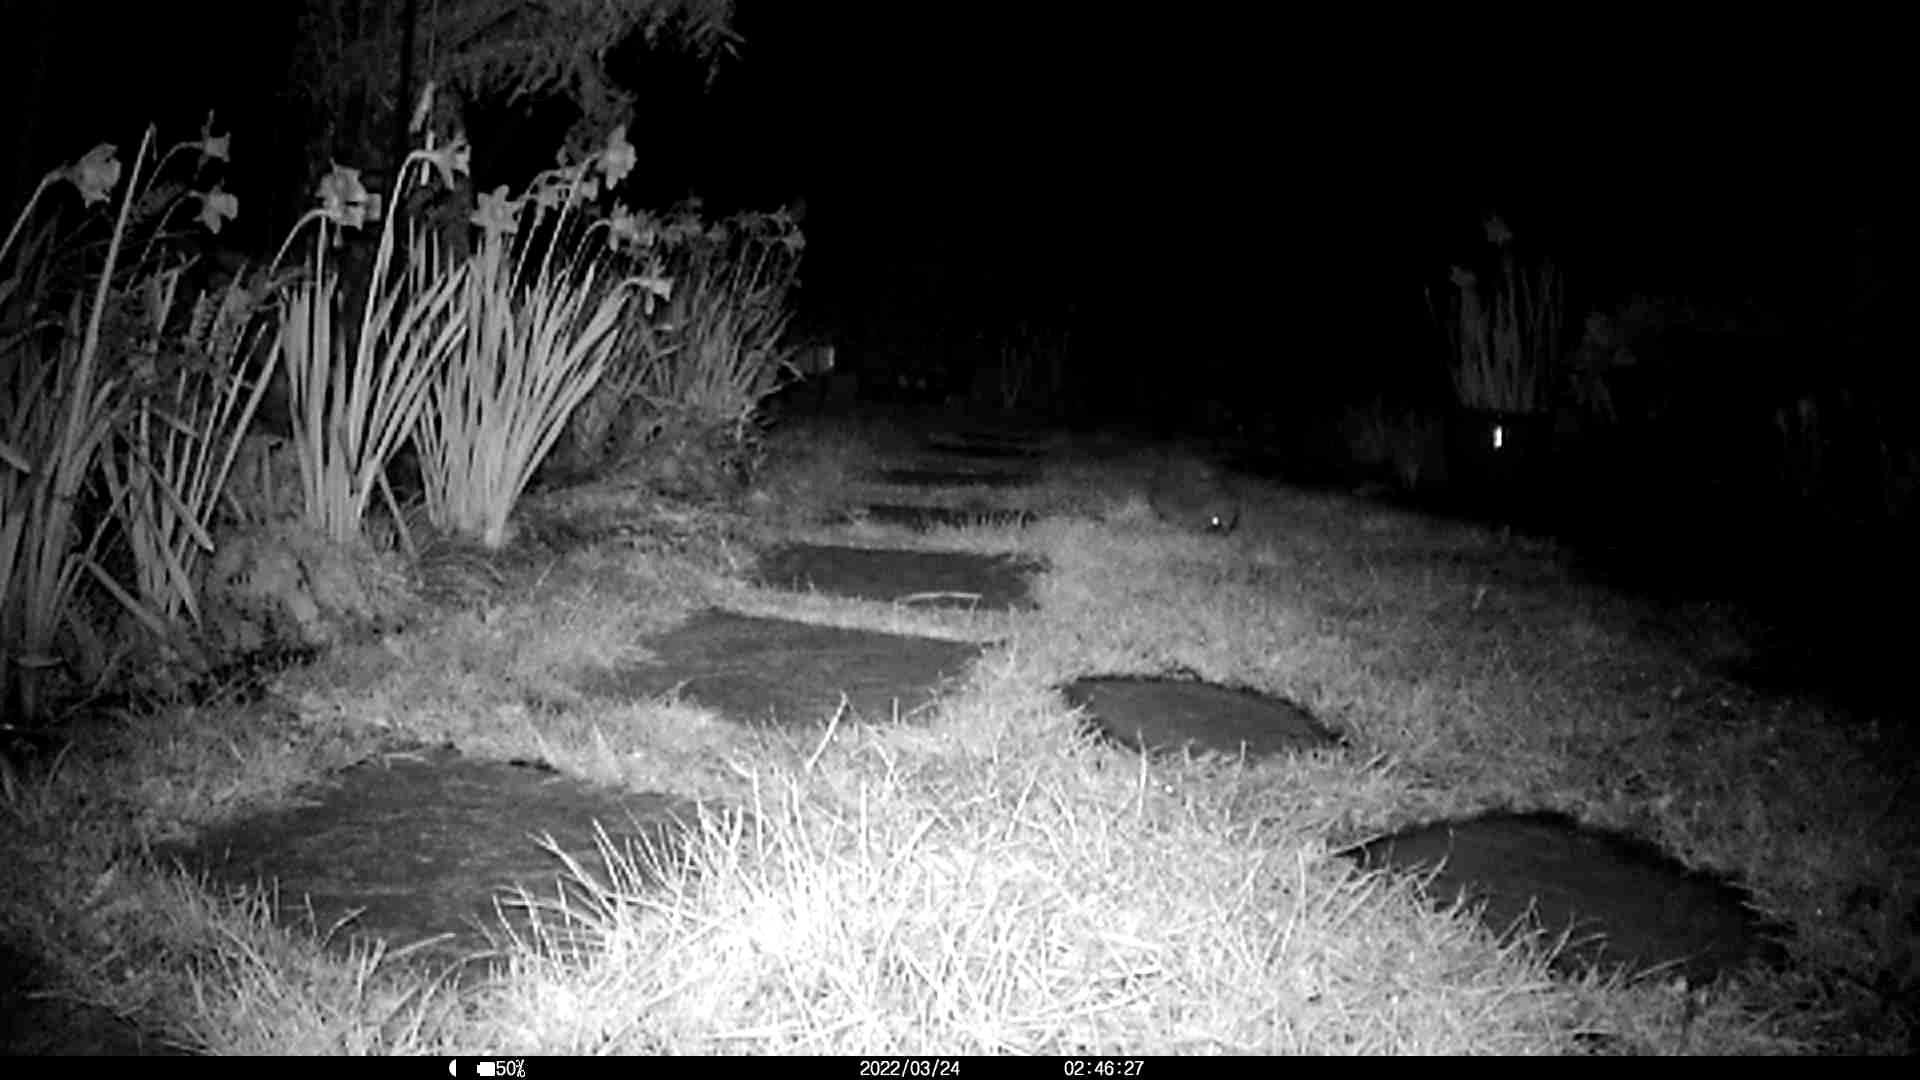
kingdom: Animalia
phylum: Chordata
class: Mammalia
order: Erinaceomorpha
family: Erinaceidae
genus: Erinaceus
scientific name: Erinaceus europaeus
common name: West european hedgehog
